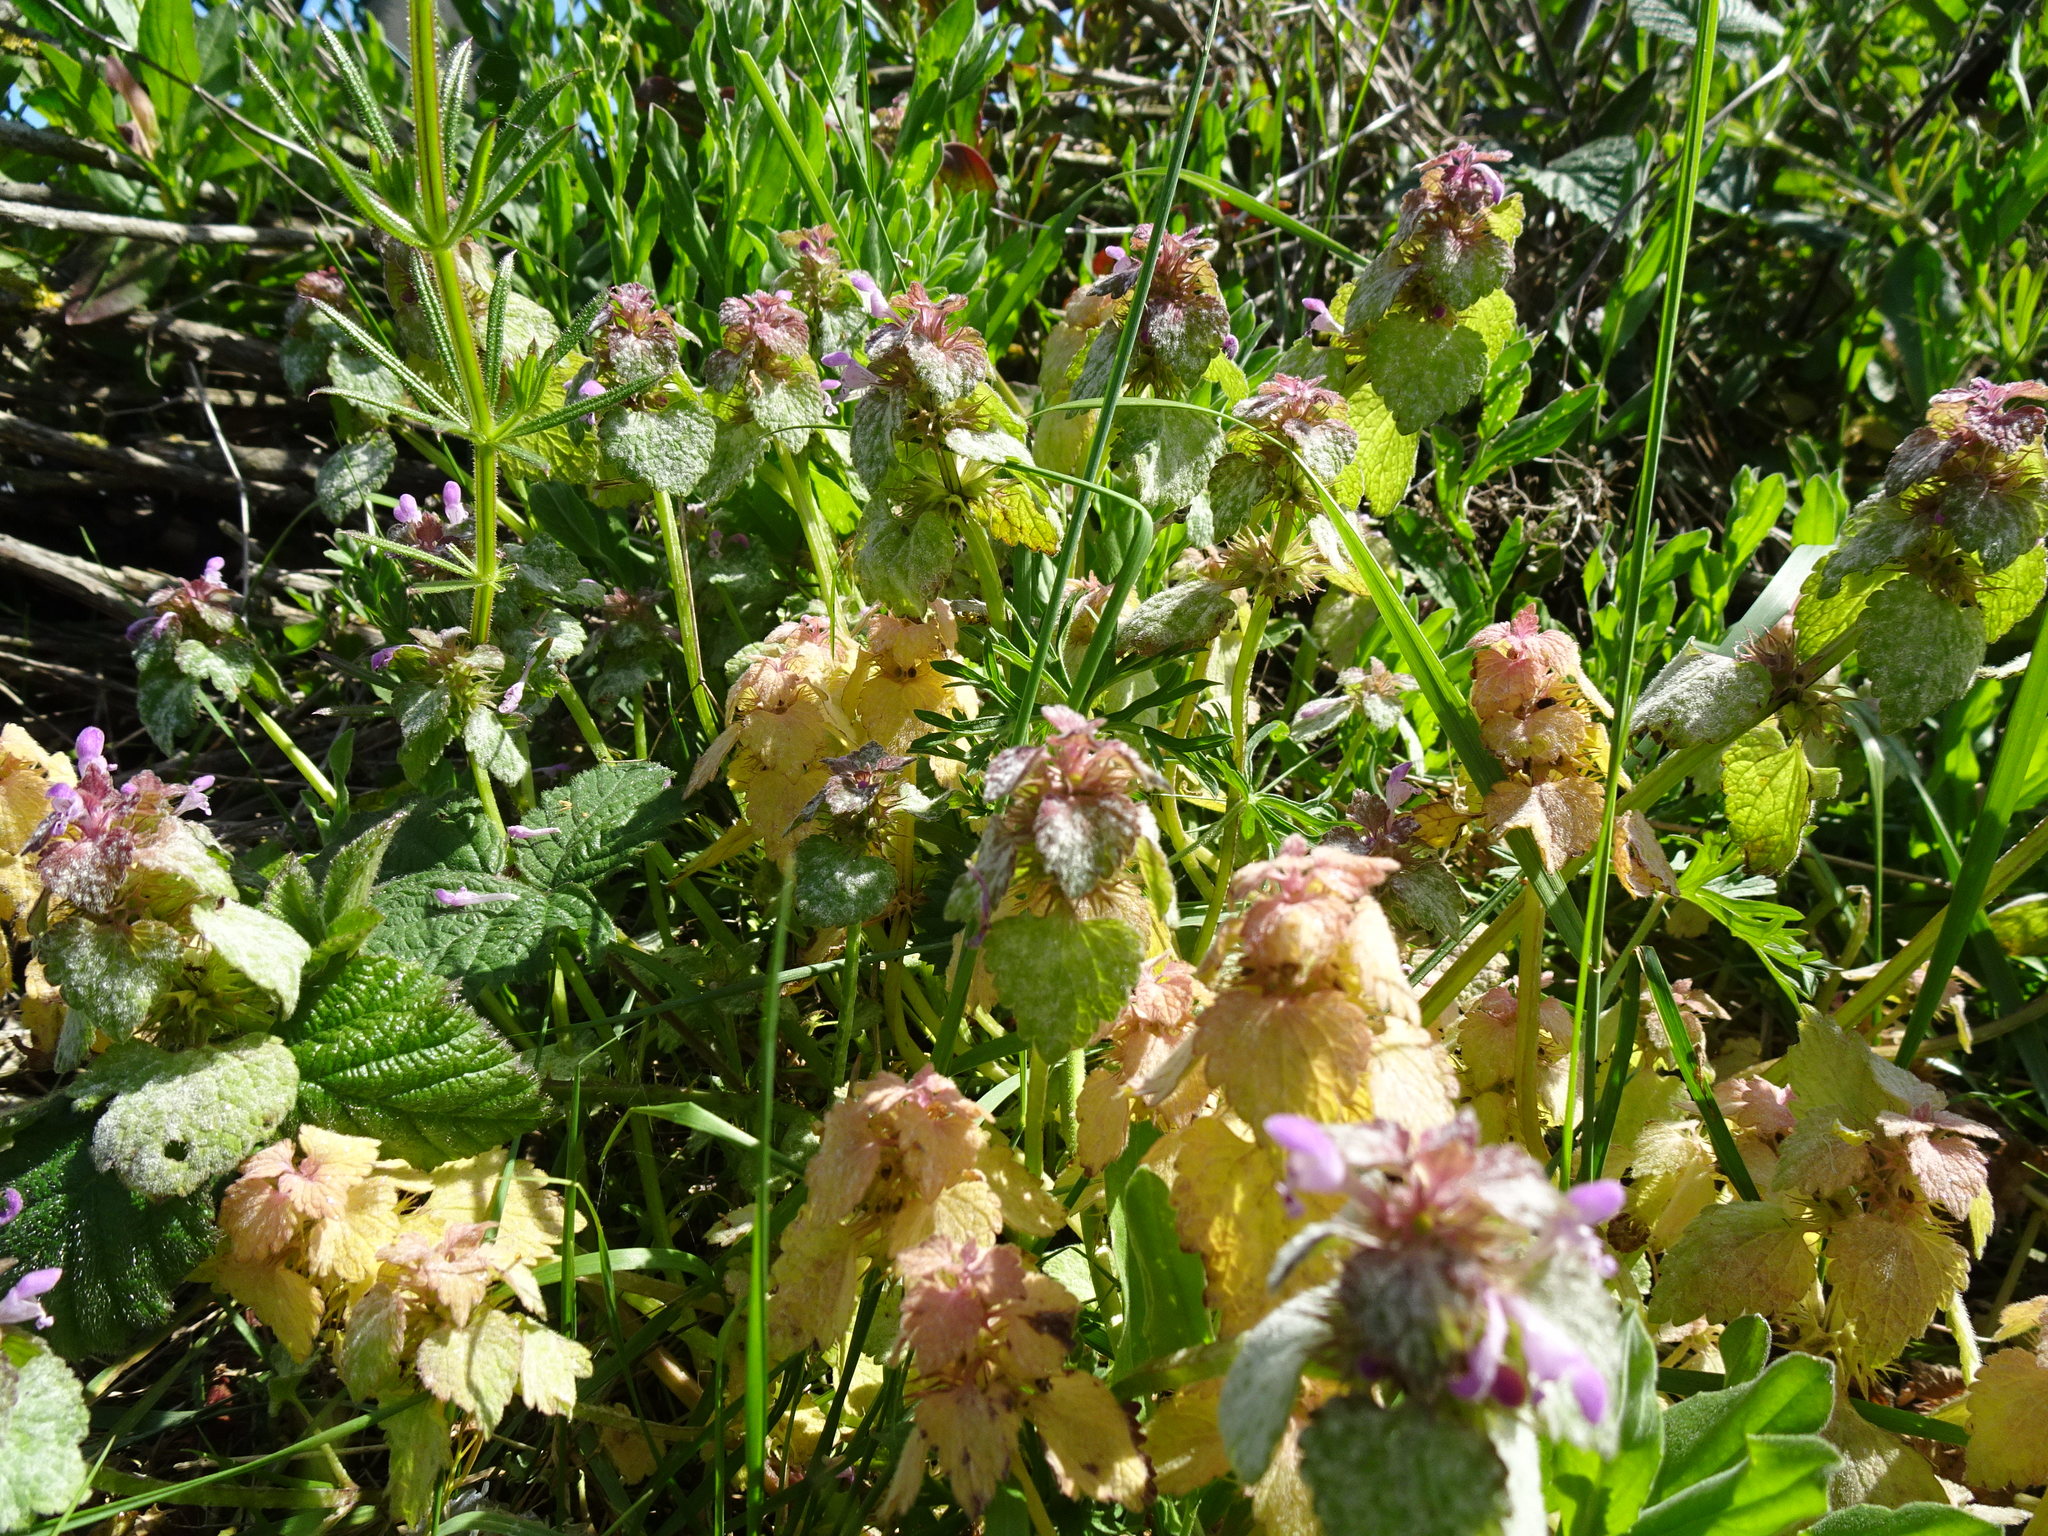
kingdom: Plantae
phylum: Tracheophyta
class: Magnoliopsida
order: Lamiales
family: Lamiaceae
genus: Lamium
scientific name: Lamium purpureum
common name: Red dead-nettle
